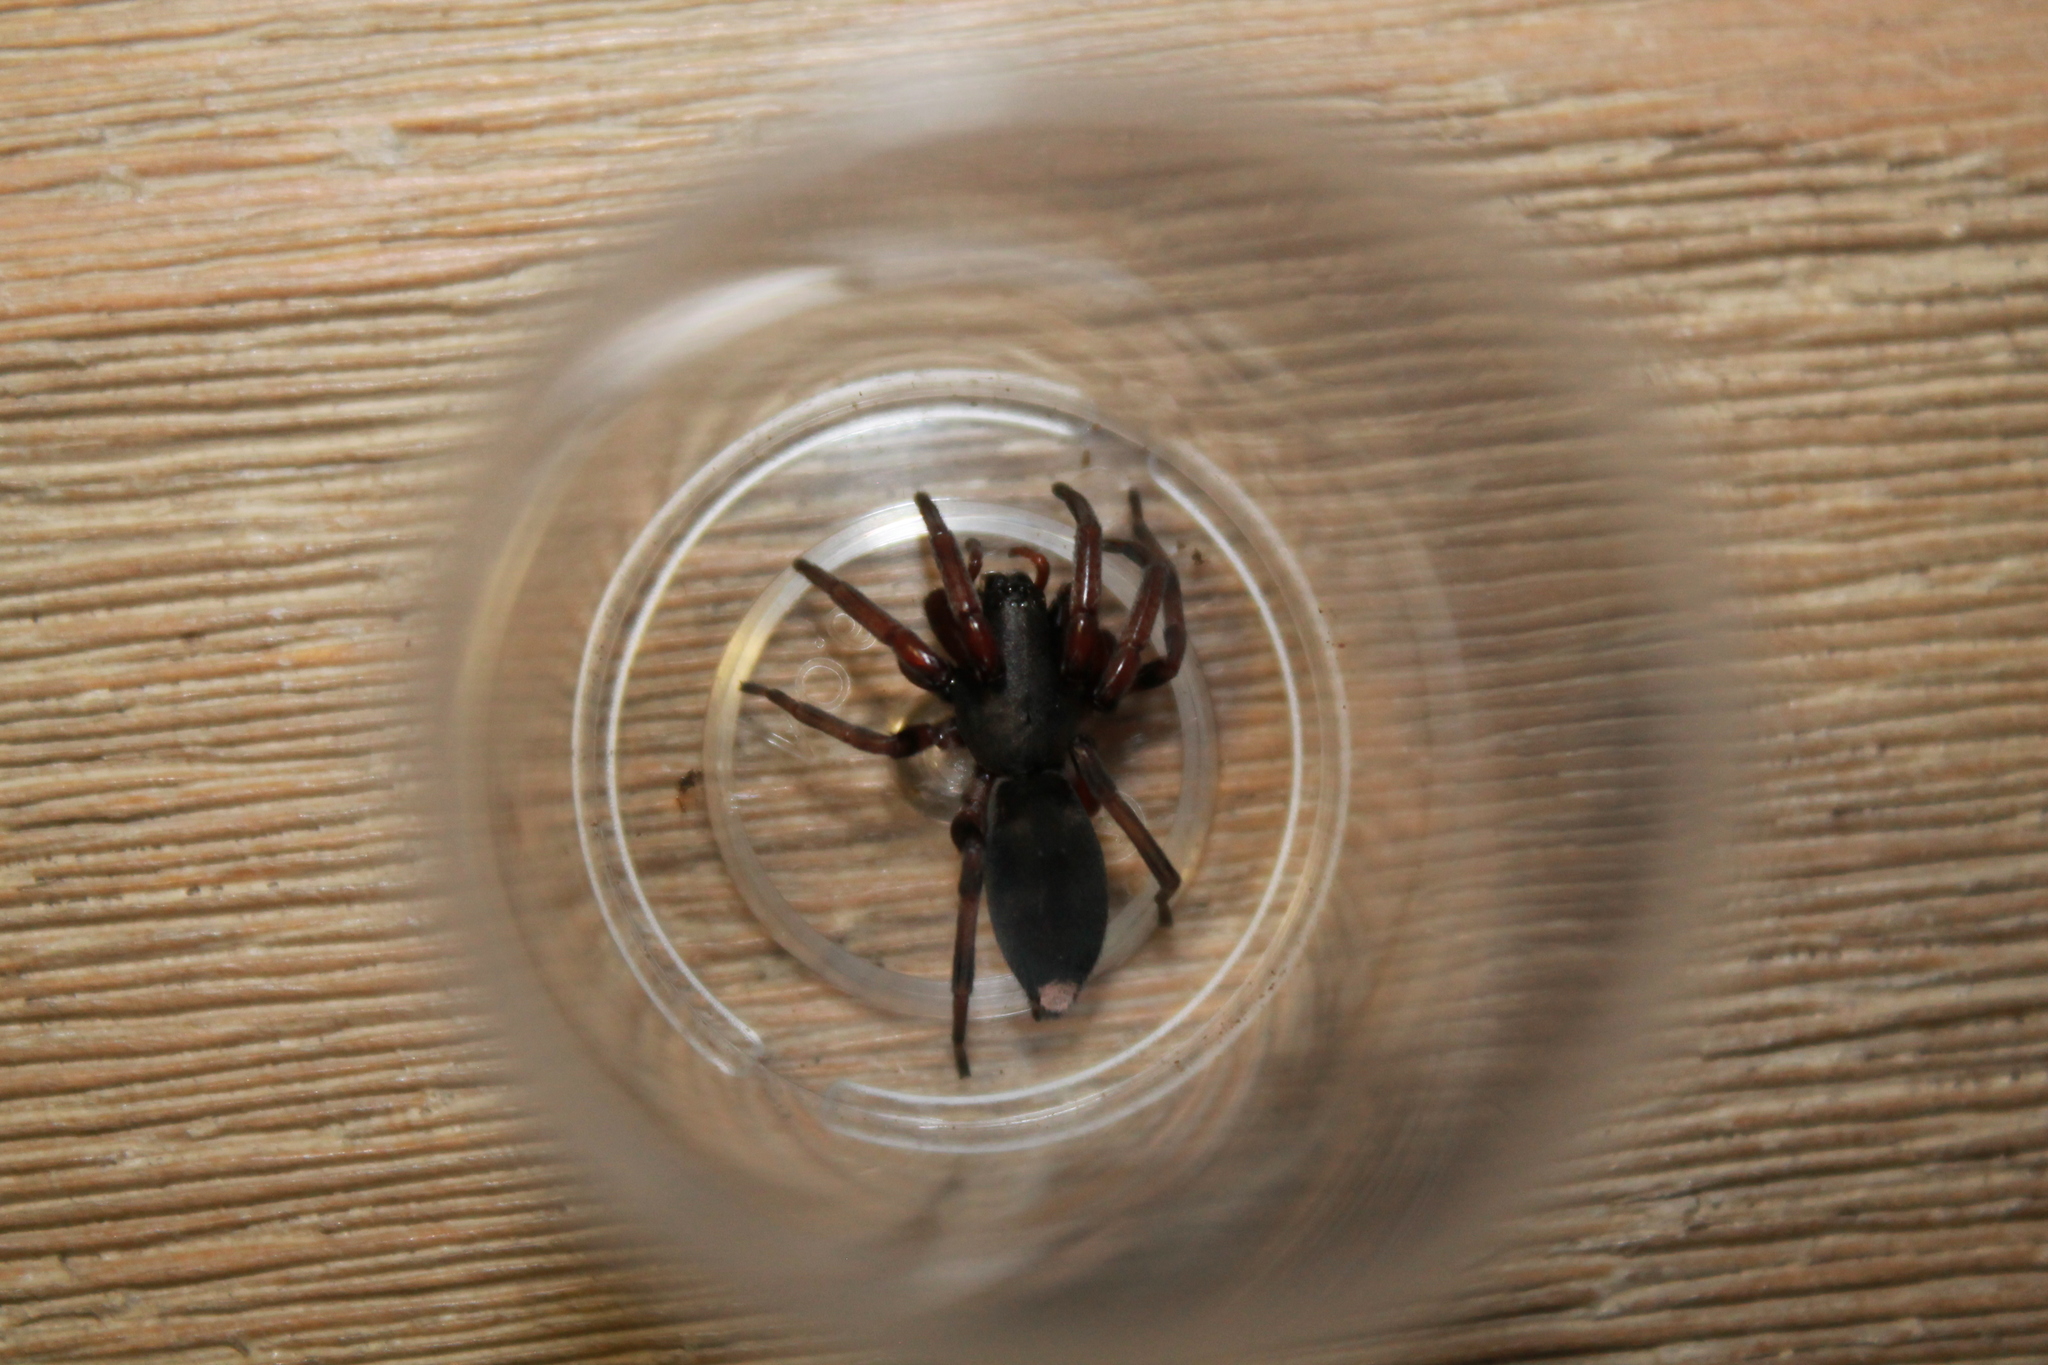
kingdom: Animalia
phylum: Arthropoda
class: Arachnida
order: Araneae
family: Lamponidae
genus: Lampona
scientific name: Lampona murina
